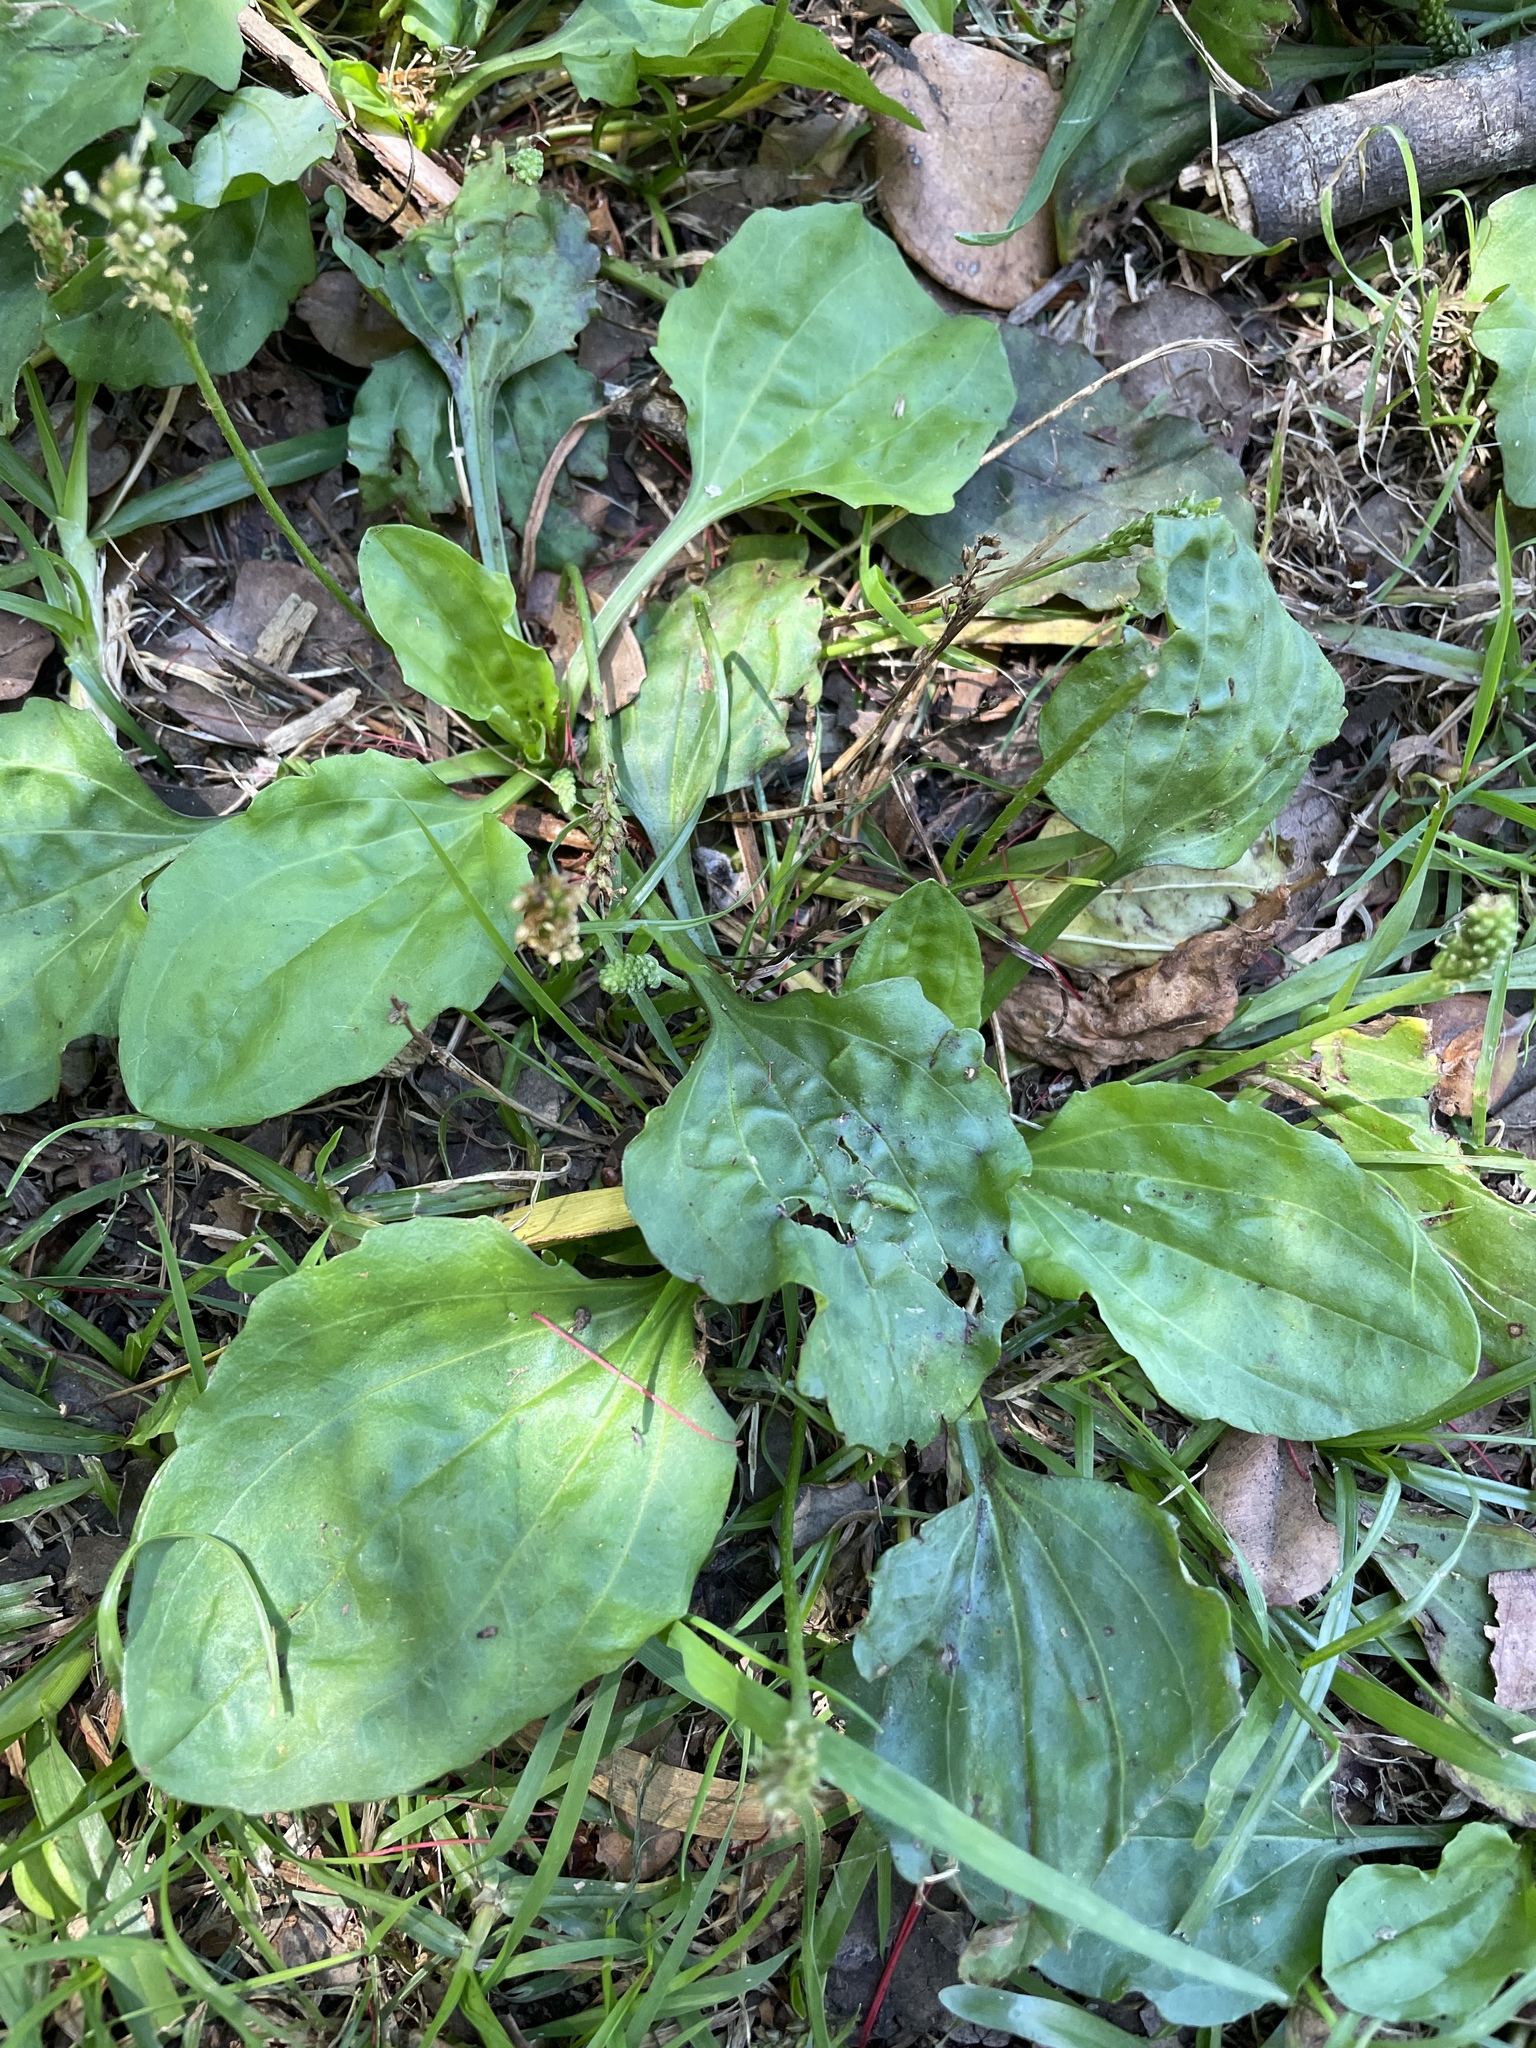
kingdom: Plantae
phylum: Tracheophyta
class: Magnoliopsida
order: Lamiales
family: Plantaginaceae
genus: Plantago
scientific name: Plantago major
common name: Common plantain
